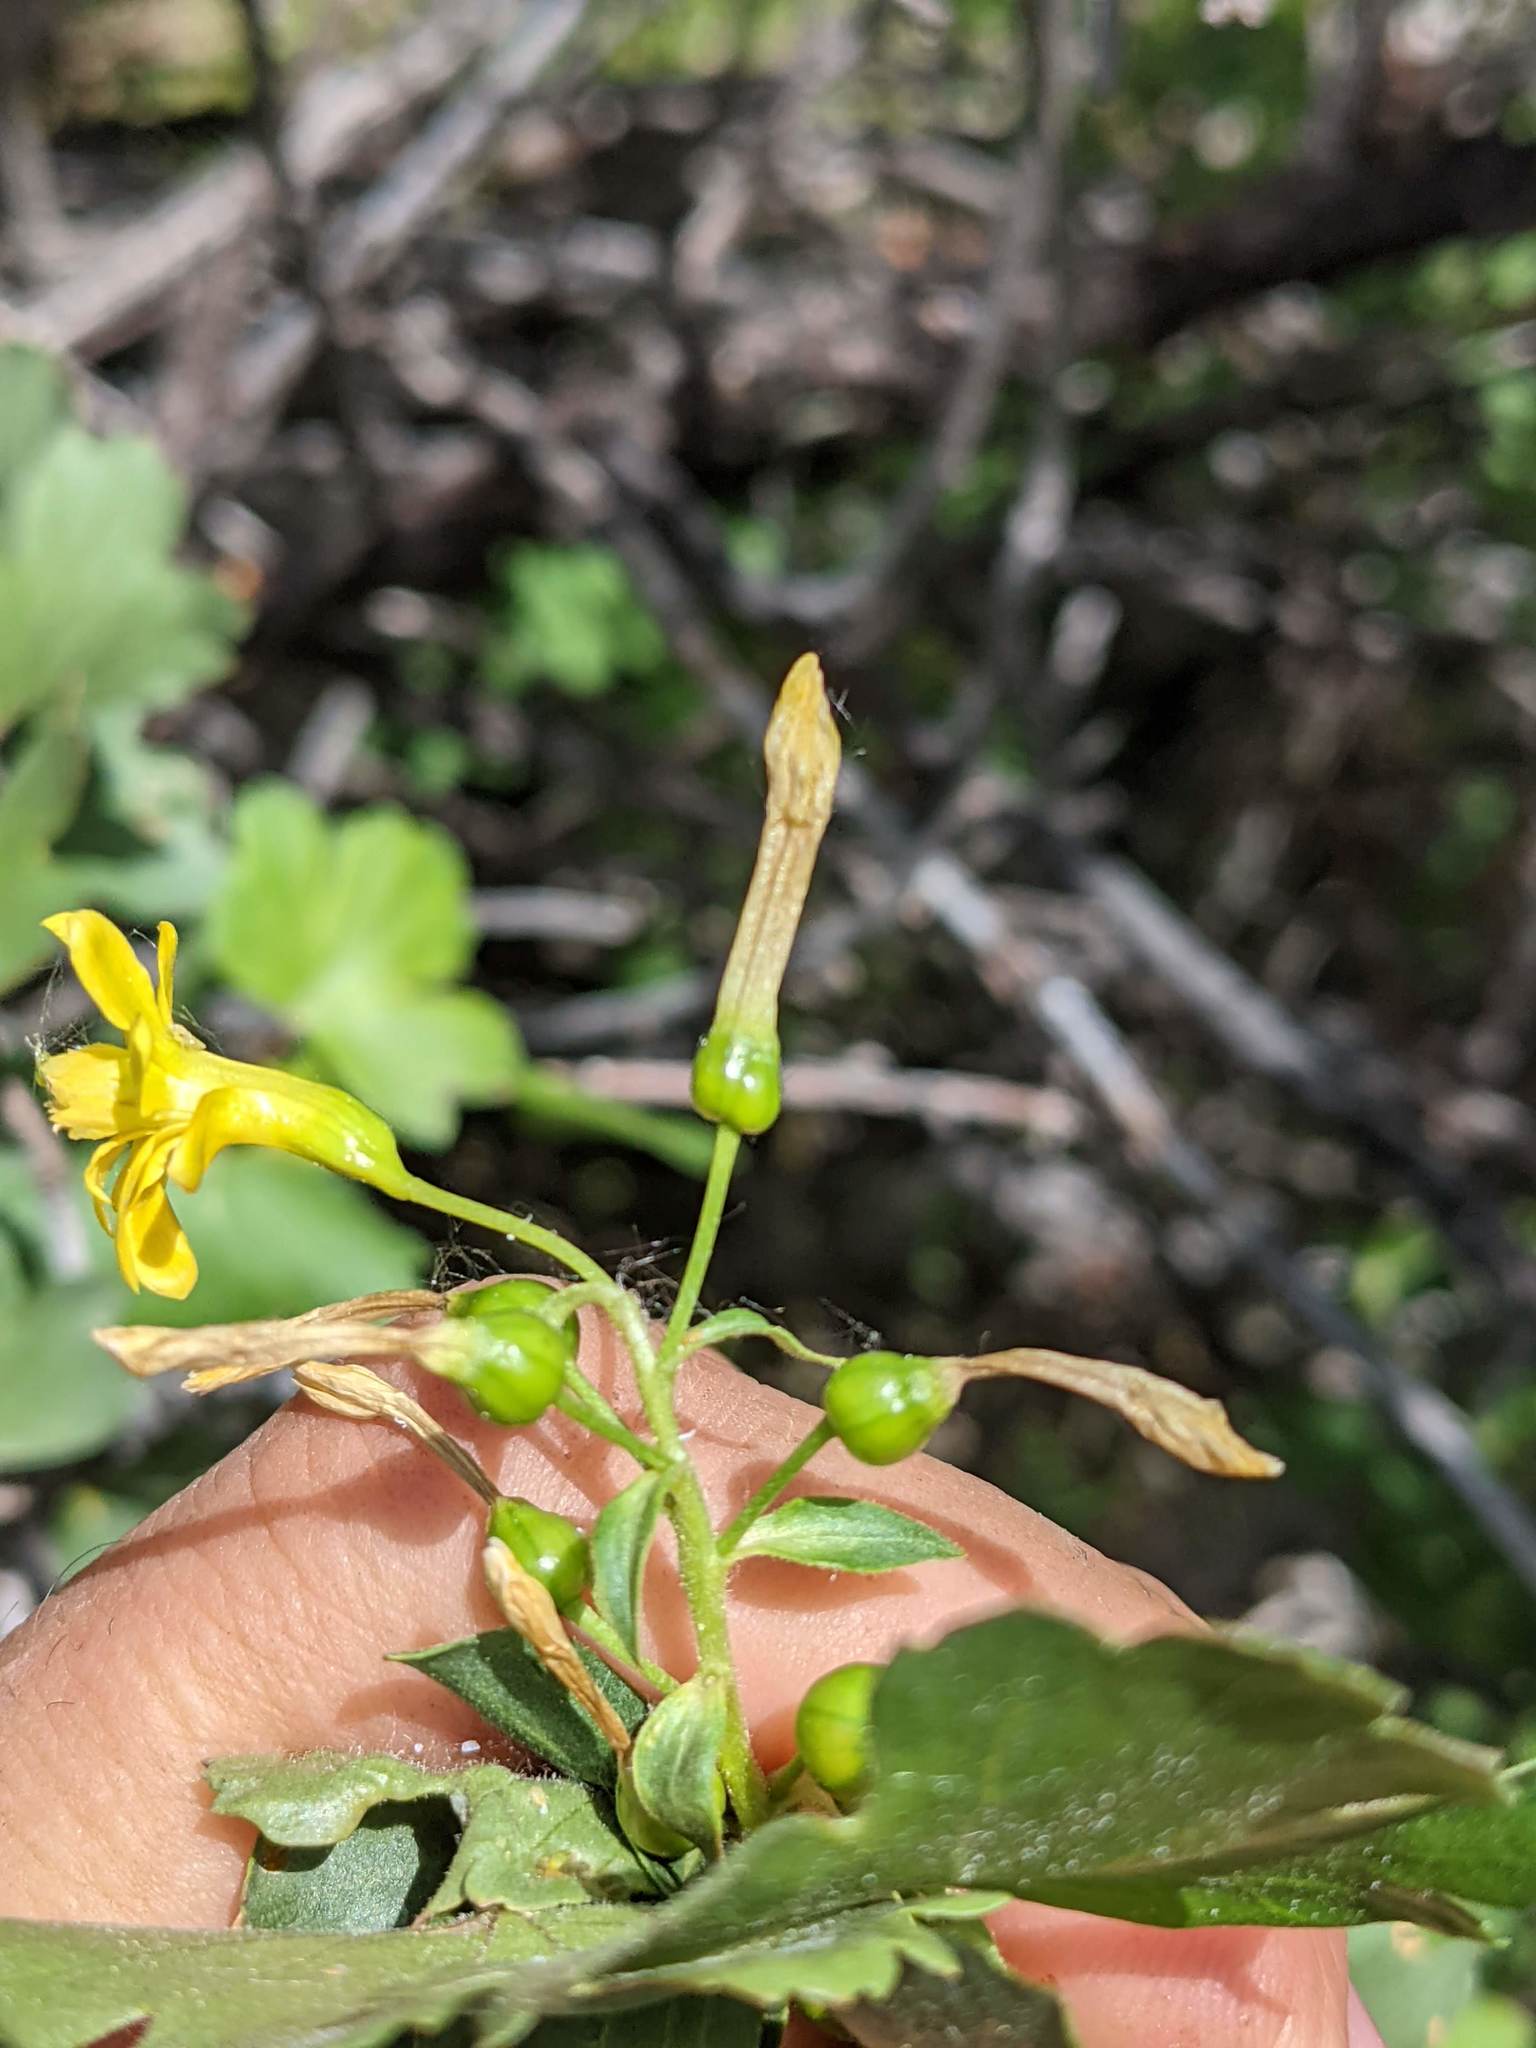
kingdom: Plantae
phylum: Tracheophyta
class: Magnoliopsida
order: Saxifragales
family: Grossulariaceae
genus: Ribes
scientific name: Ribes aureum
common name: Golden currant
